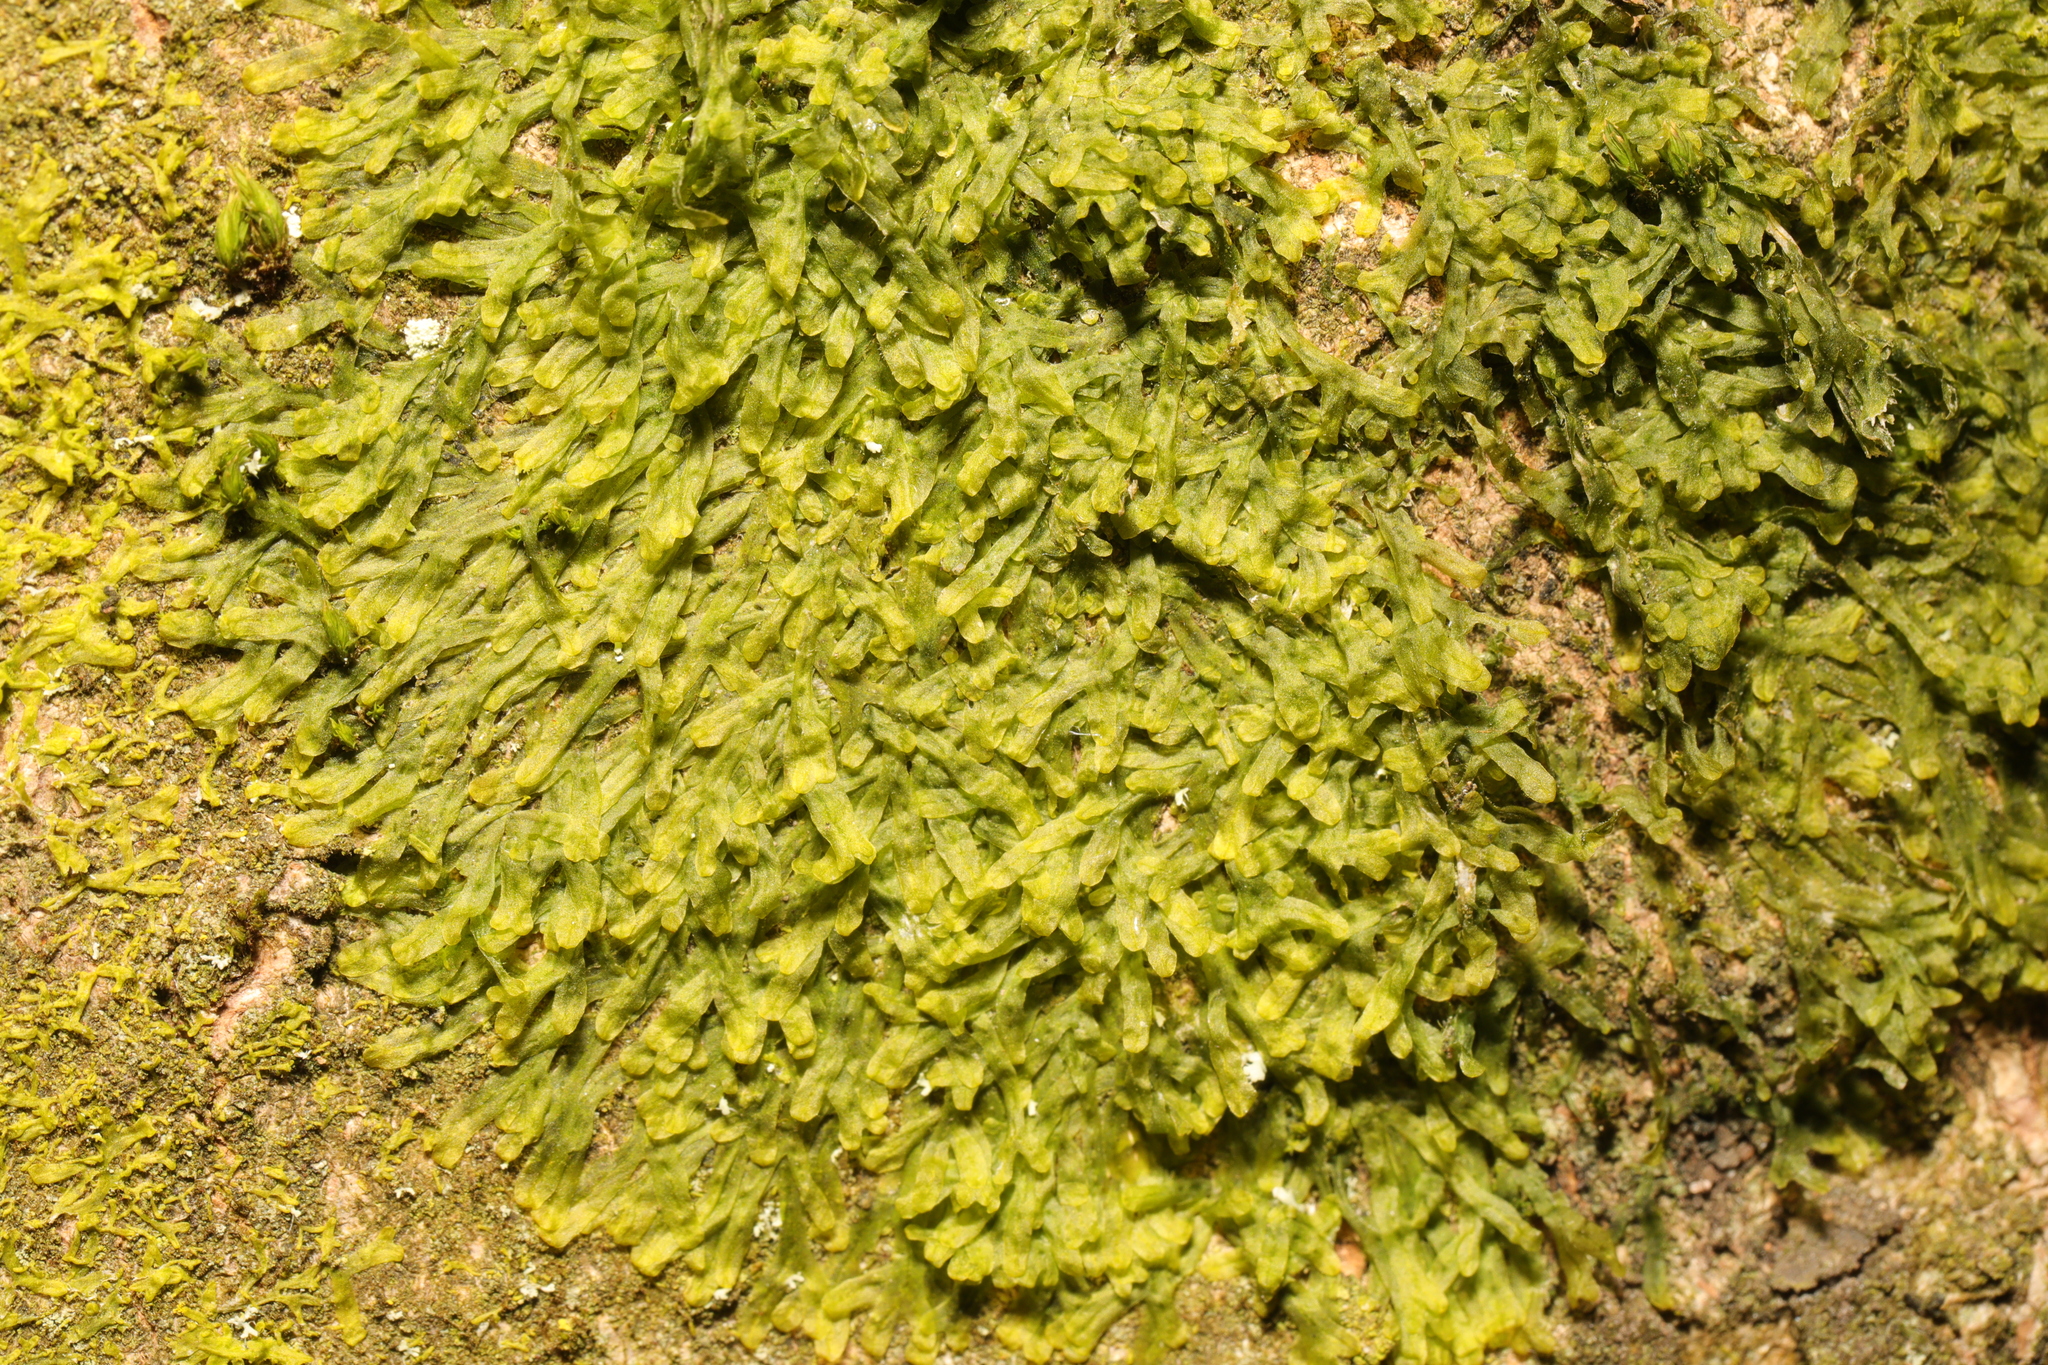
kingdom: Plantae
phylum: Marchantiophyta
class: Jungermanniopsida
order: Metzgeriales
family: Metzgeriaceae
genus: Metzgeria
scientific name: Metzgeria furcata
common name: Forked veilwort
